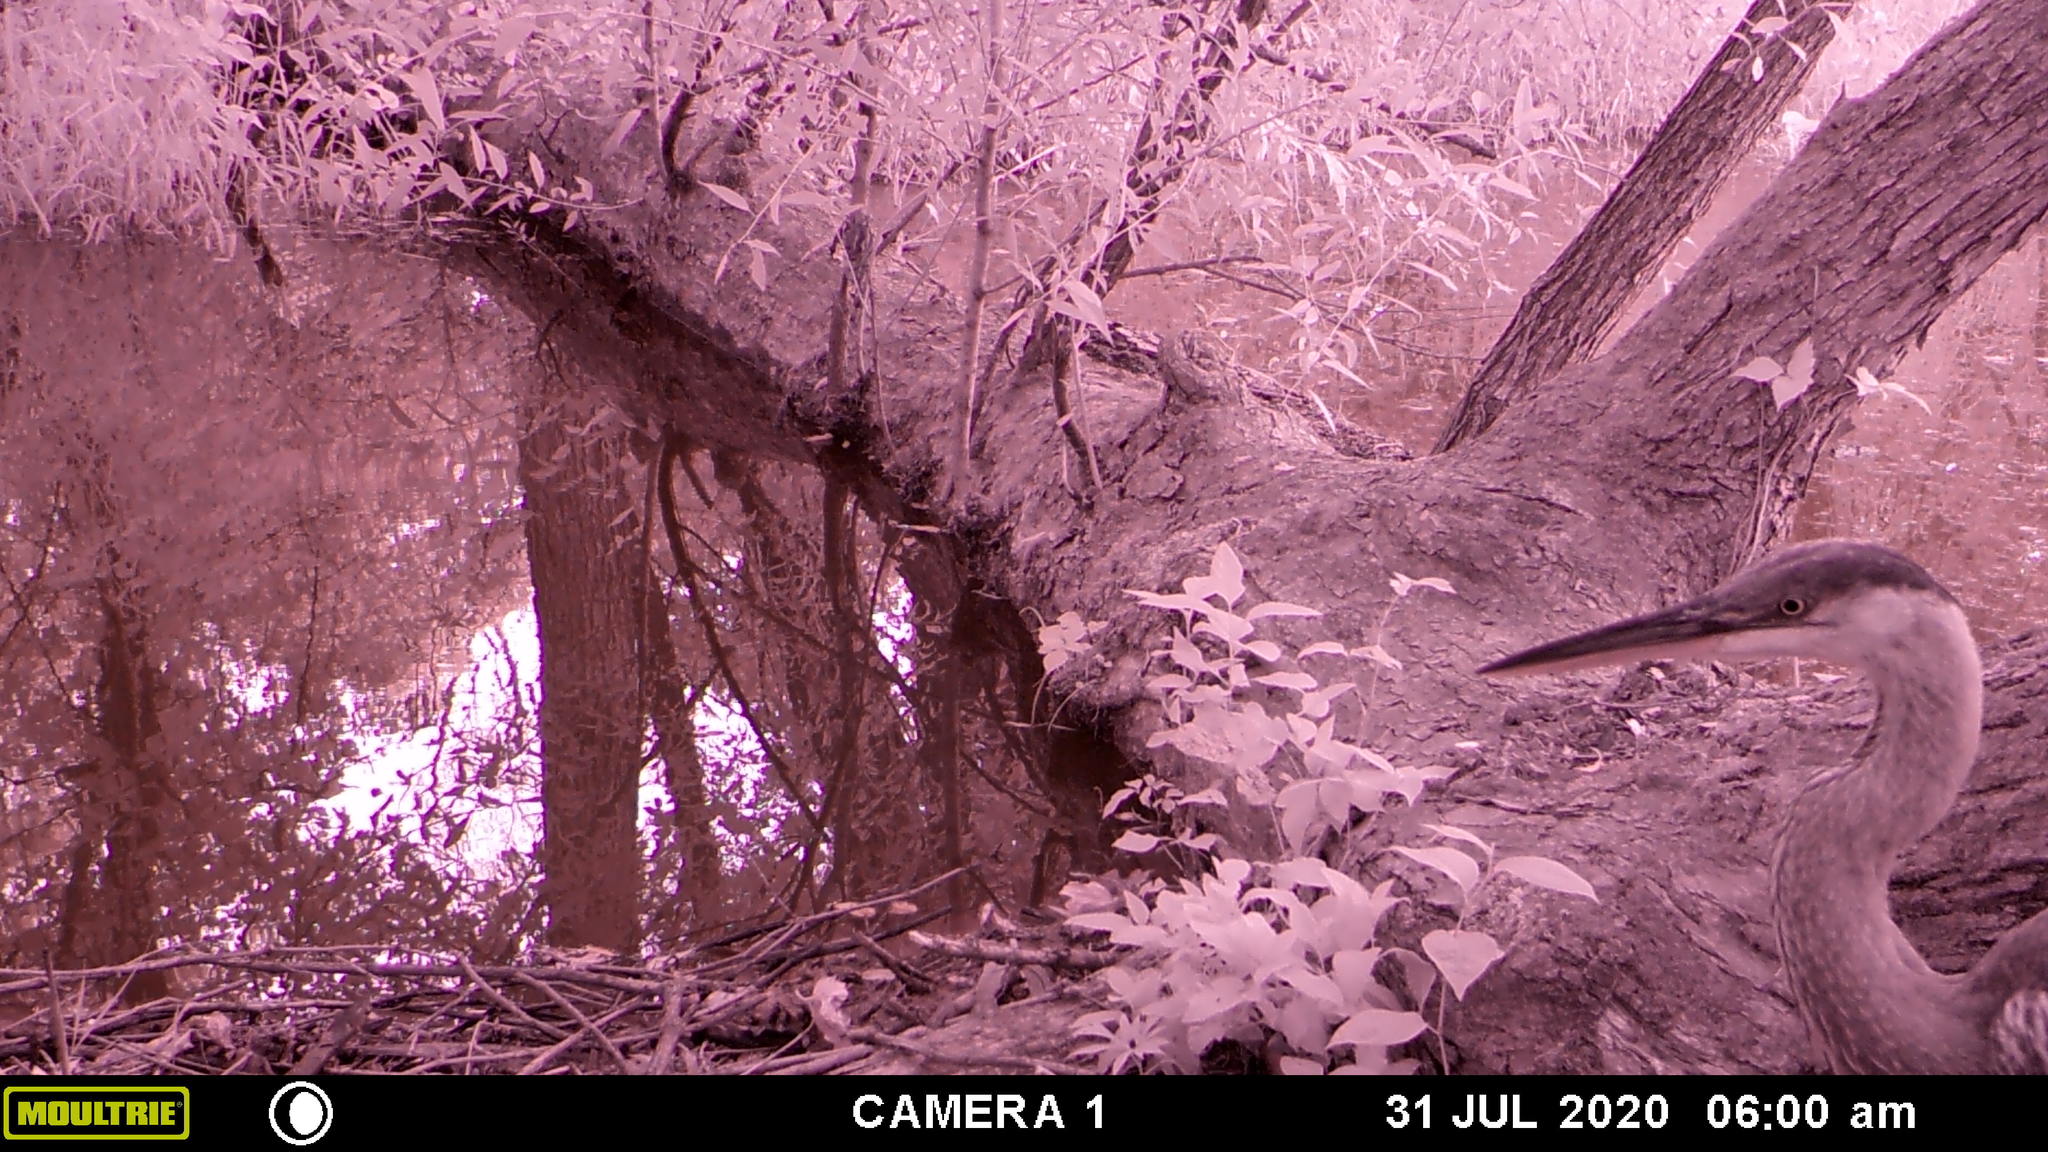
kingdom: Animalia
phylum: Chordata
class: Aves
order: Pelecaniformes
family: Ardeidae
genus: Ardea
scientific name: Ardea herodias
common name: Great blue heron
